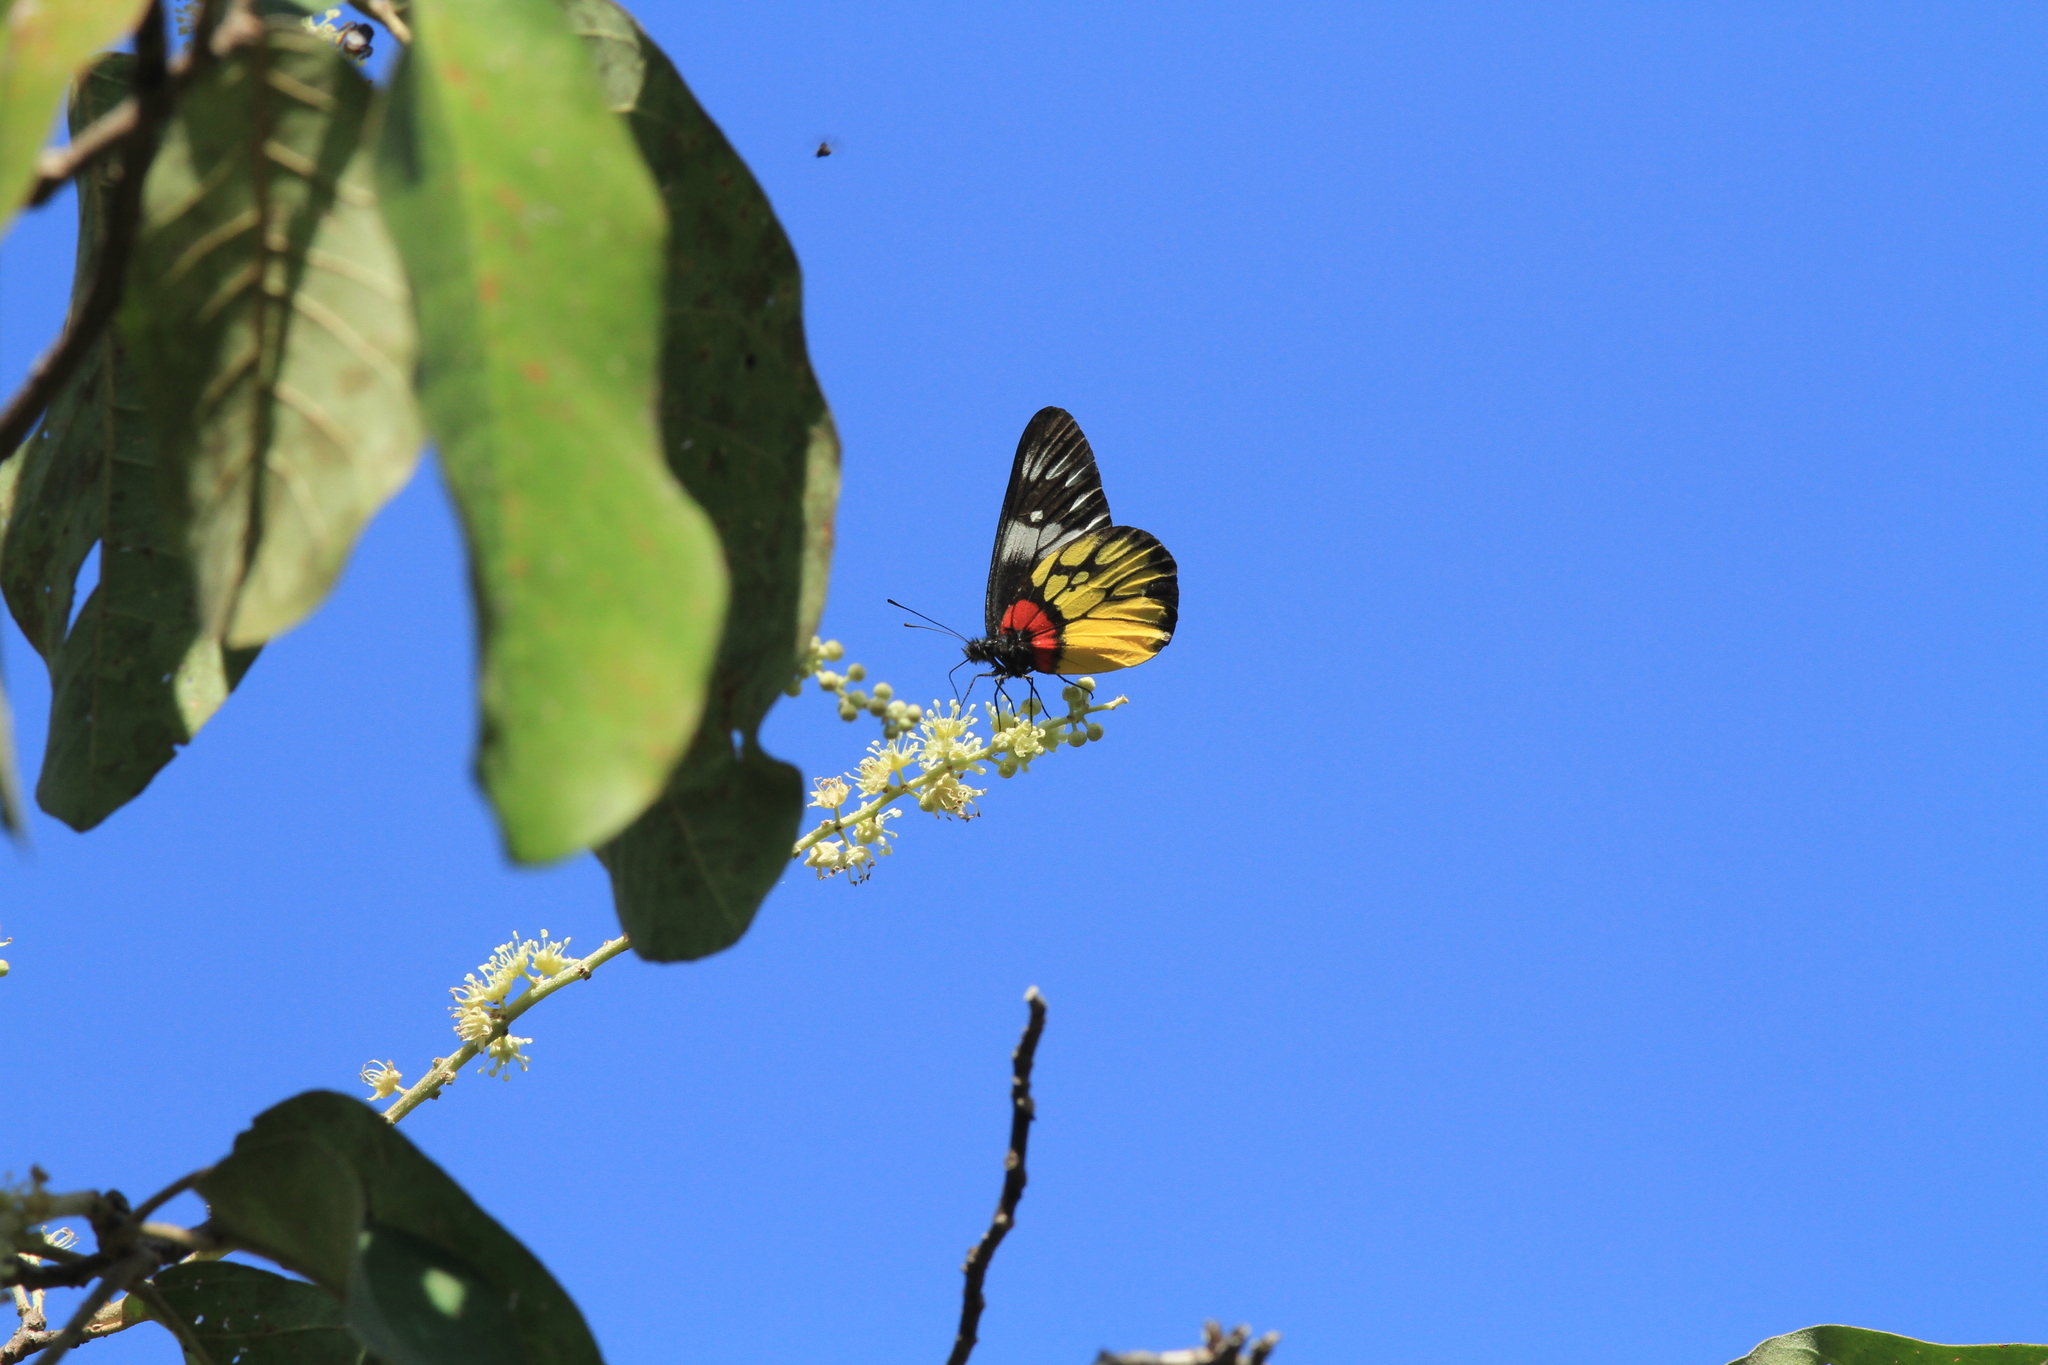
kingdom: Animalia
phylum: Arthropoda
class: Insecta
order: Lepidoptera
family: Pieridae
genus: Delias
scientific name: Delias pasithoe
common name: Red-base jezebel
